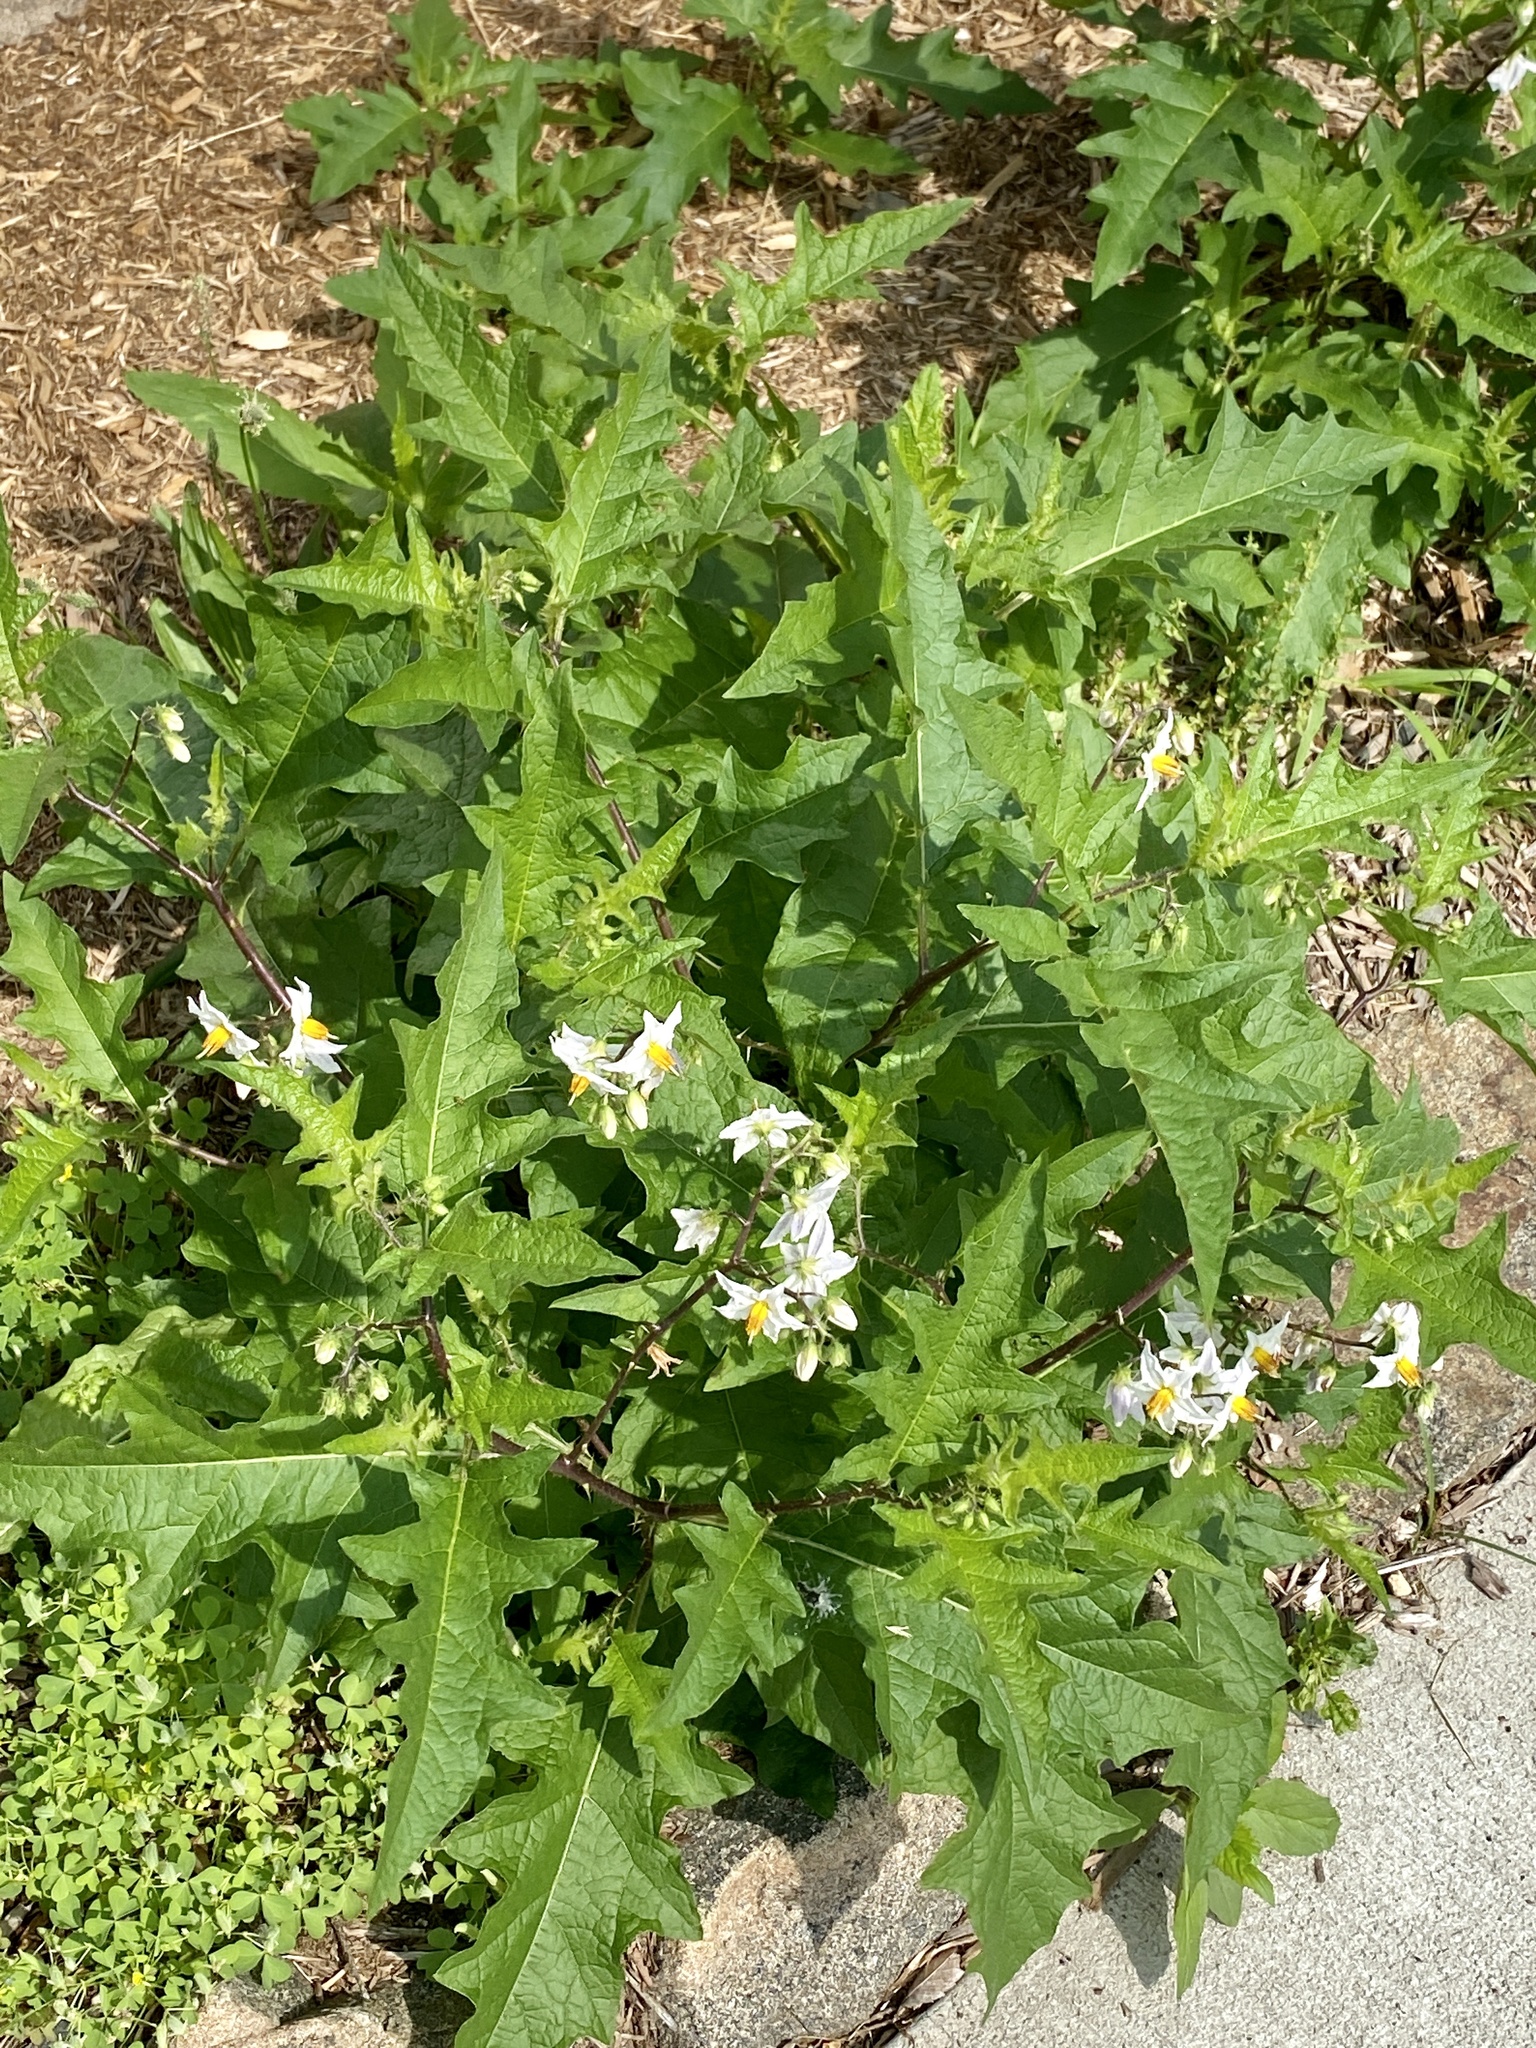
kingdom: Plantae
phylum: Tracheophyta
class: Magnoliopsida
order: Solanales
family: Solanaceae
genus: Solanum
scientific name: Solanum carolinense
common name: Horse-nettle
